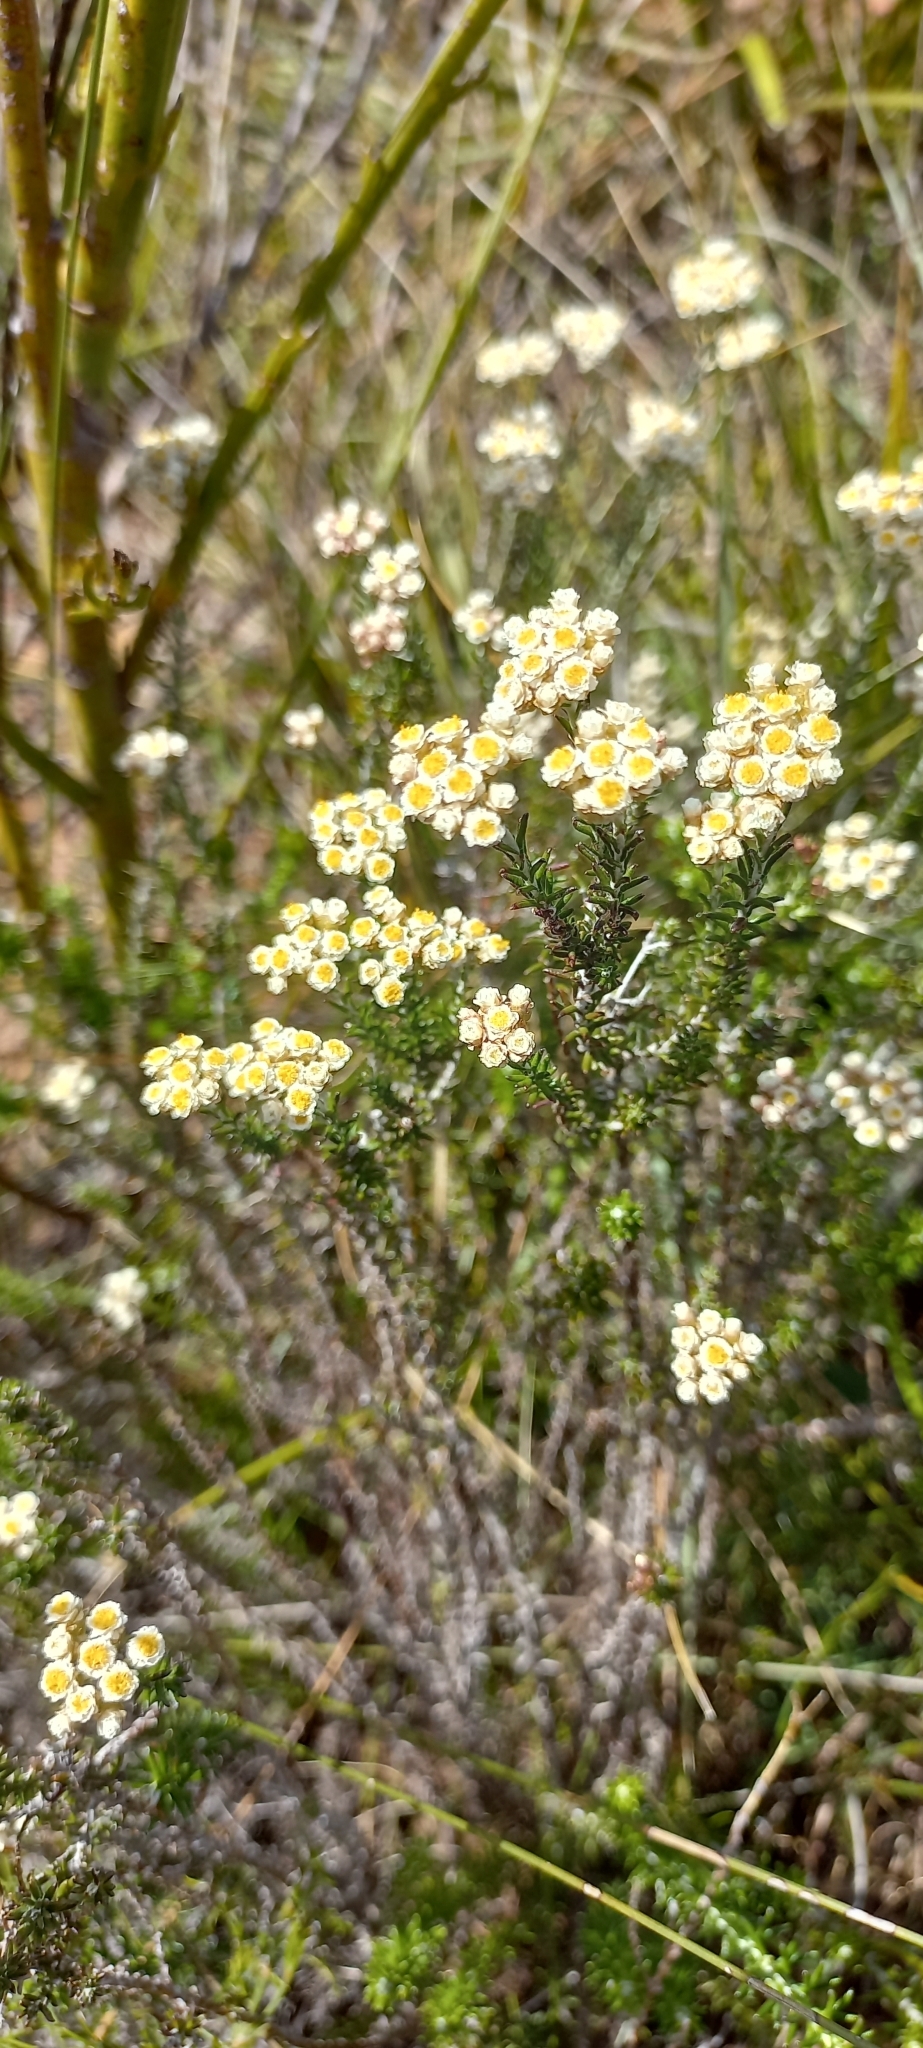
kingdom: Plantae
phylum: Tracheophyta
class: Magnoliopsida
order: Asterales
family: Asteraceae
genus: Helichrysum
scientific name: Helichrysum teretifolium
